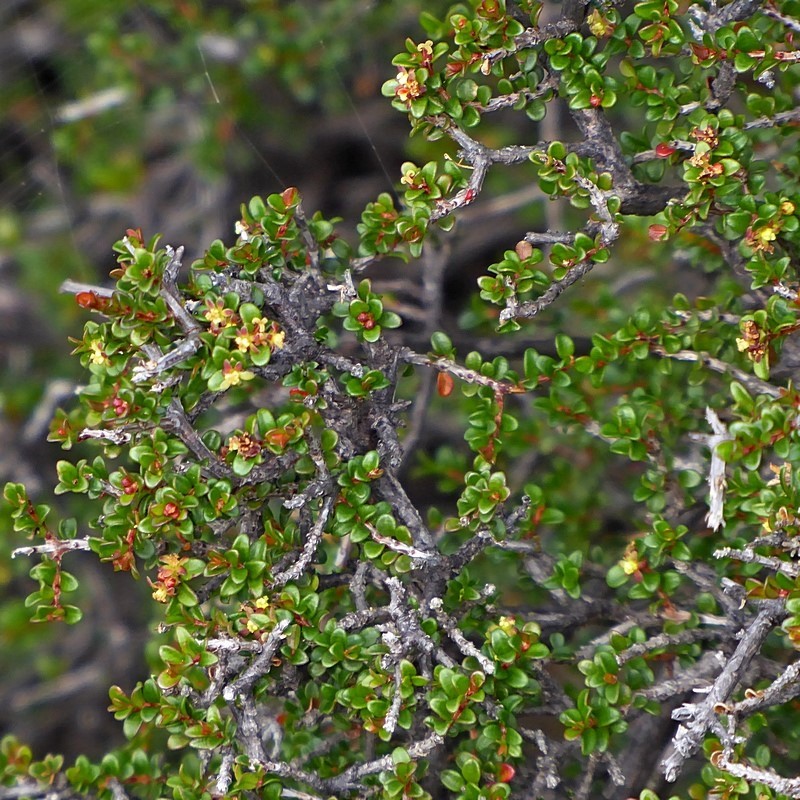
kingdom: Plantae
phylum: Tracheophyta
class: Magnoliopsida
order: Malpighiales
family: Picrodendraceae
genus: Pseudanthus
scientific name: Pseudanthus divaricatissimus
